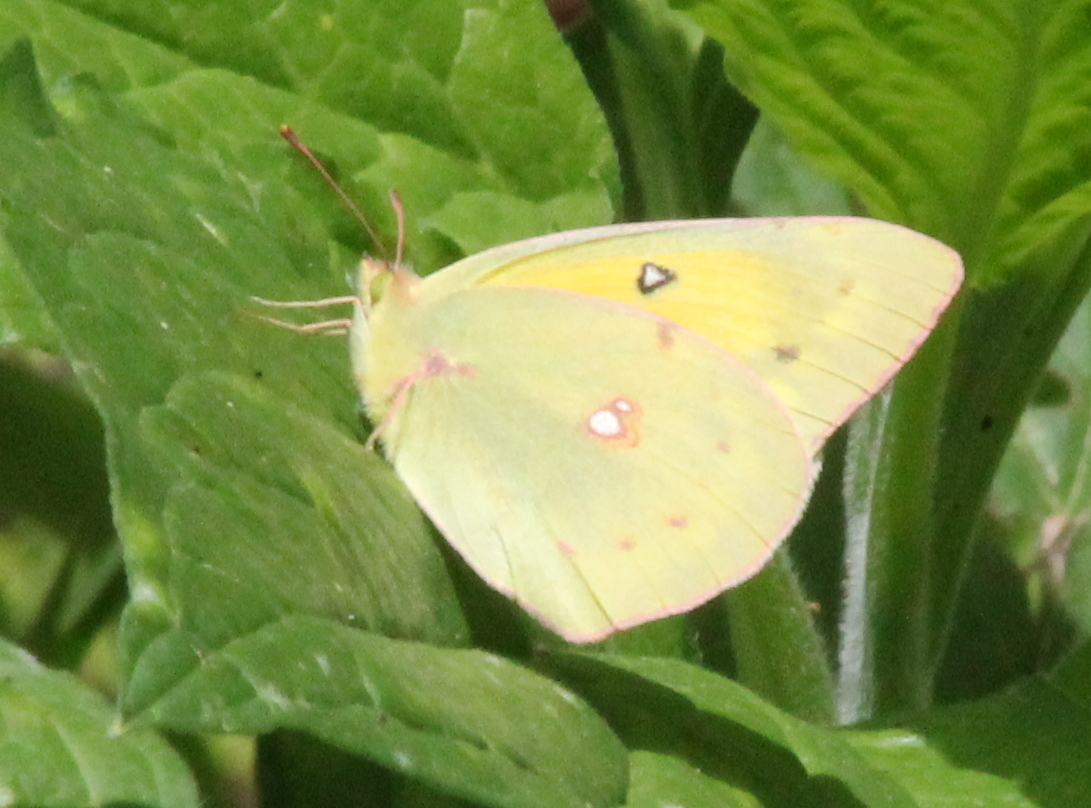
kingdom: Animalia
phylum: Arthropoda
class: Insecta
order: Lepidoptera
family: Pieridae
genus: Colias
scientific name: Colias eurytheme
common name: Alfalfa butterfly
